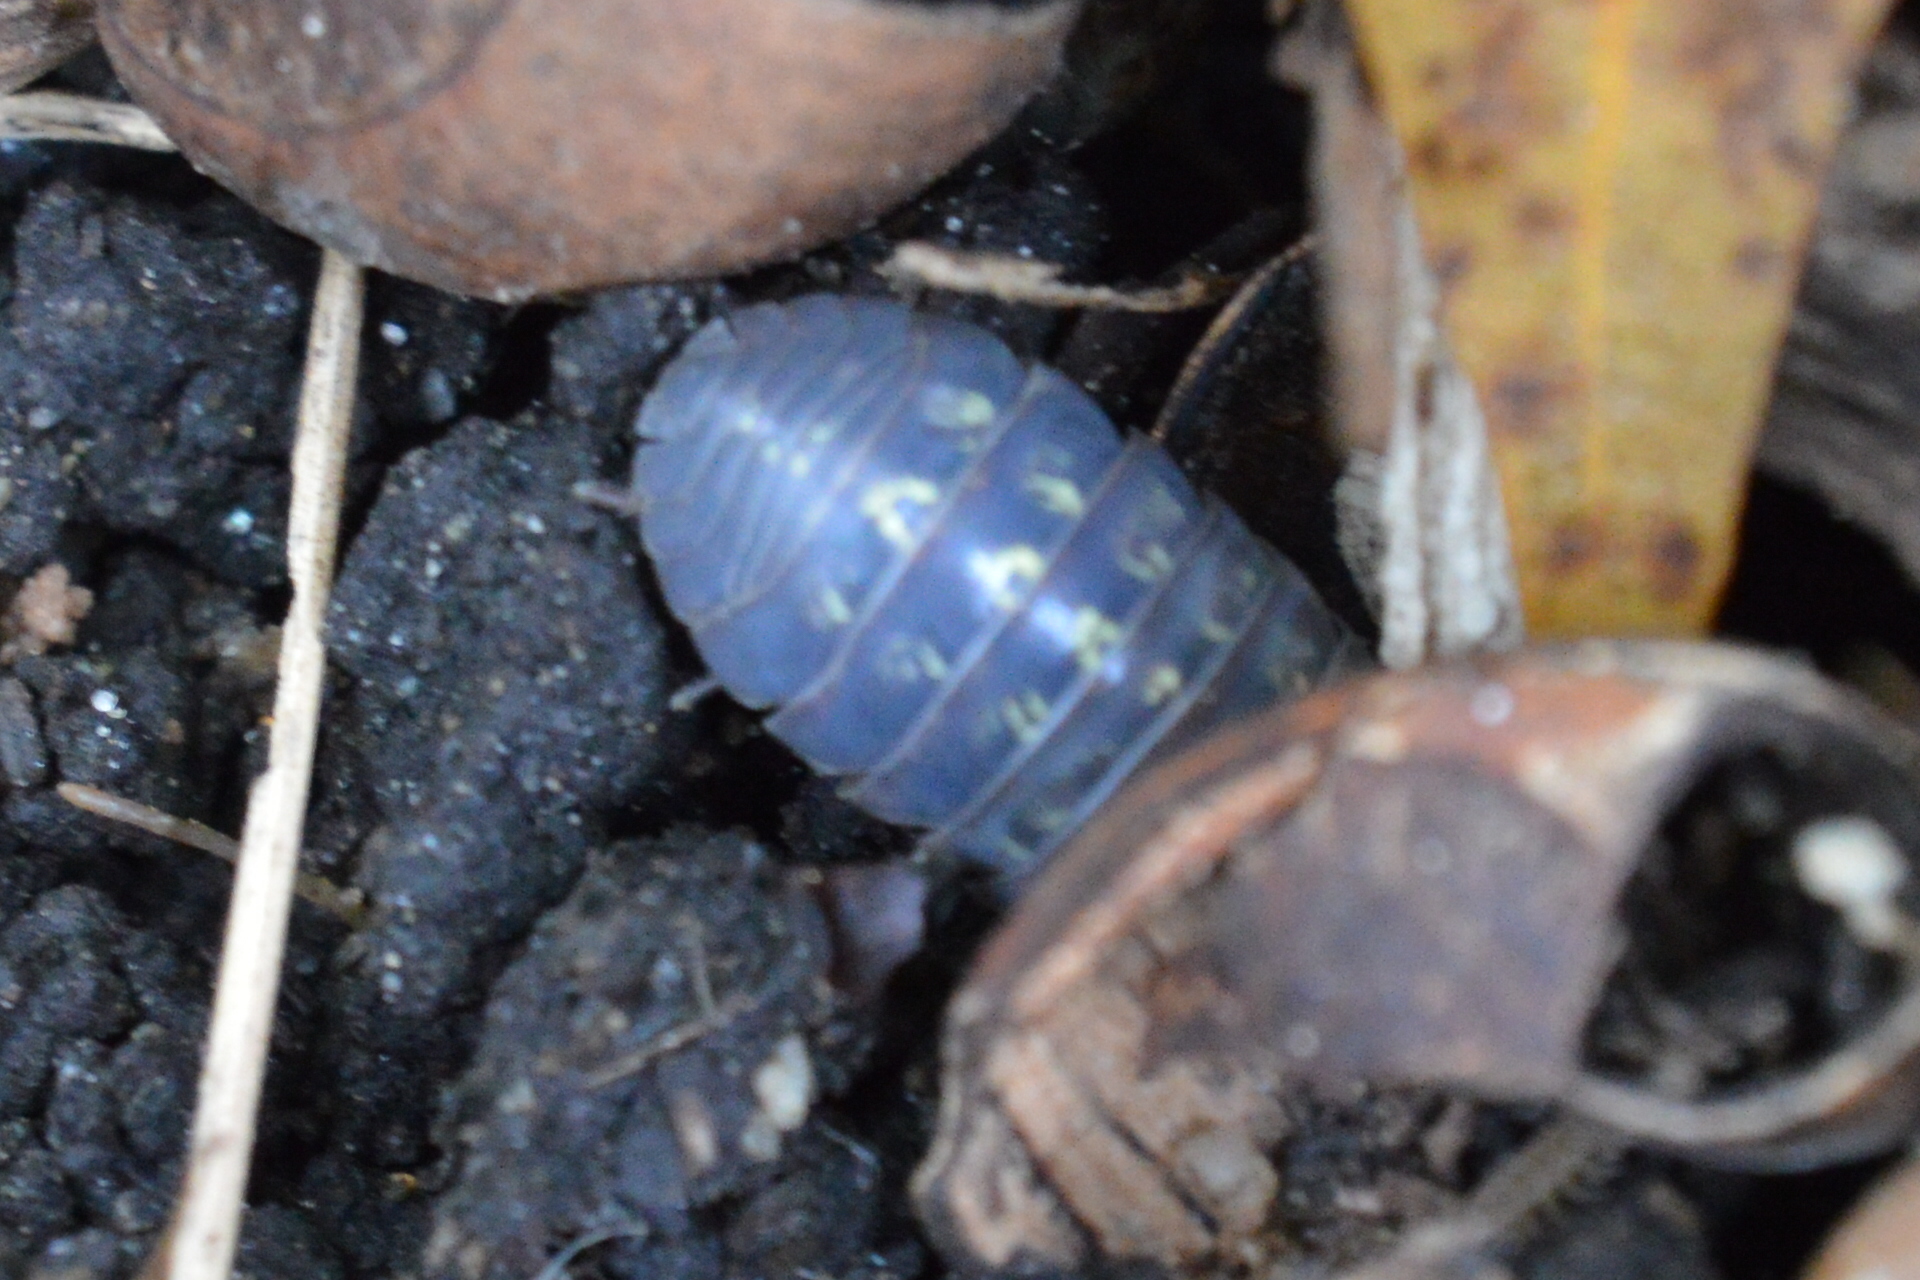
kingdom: Animalia
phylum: Arthropoda
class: Malacostraca
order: Isopoda
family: Armadillidiidae
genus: Armadillidium
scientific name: Armadillidium vulgare
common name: Common pill woodlouse
